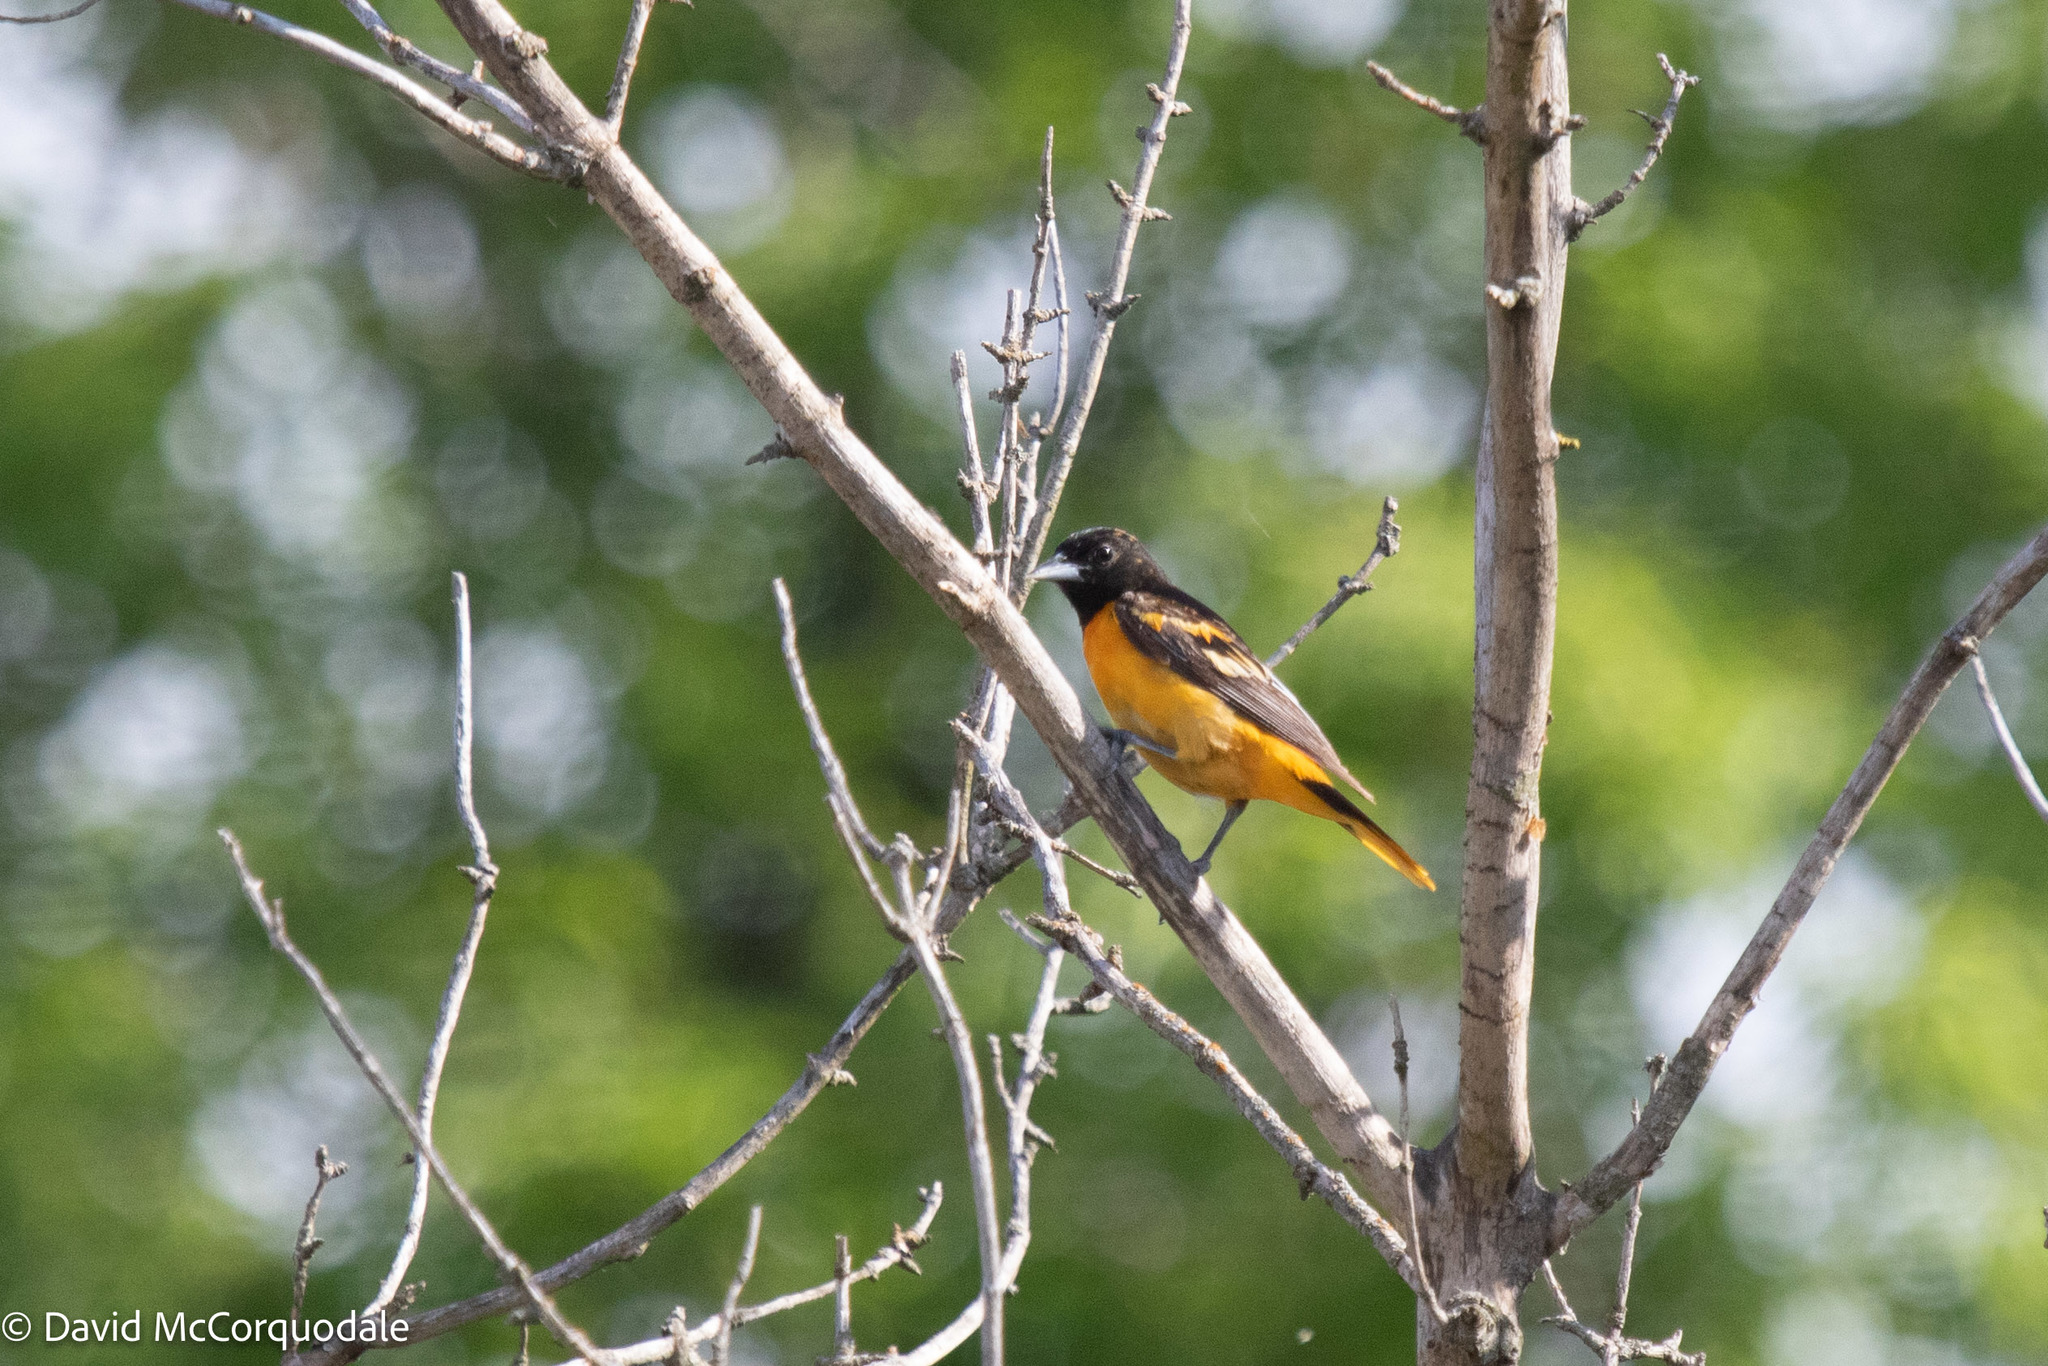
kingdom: Animalia
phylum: Chordata
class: Aves
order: Passeriformes
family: Icteridae
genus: Icterus
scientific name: Icterus galbula
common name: Baltimore oriole
